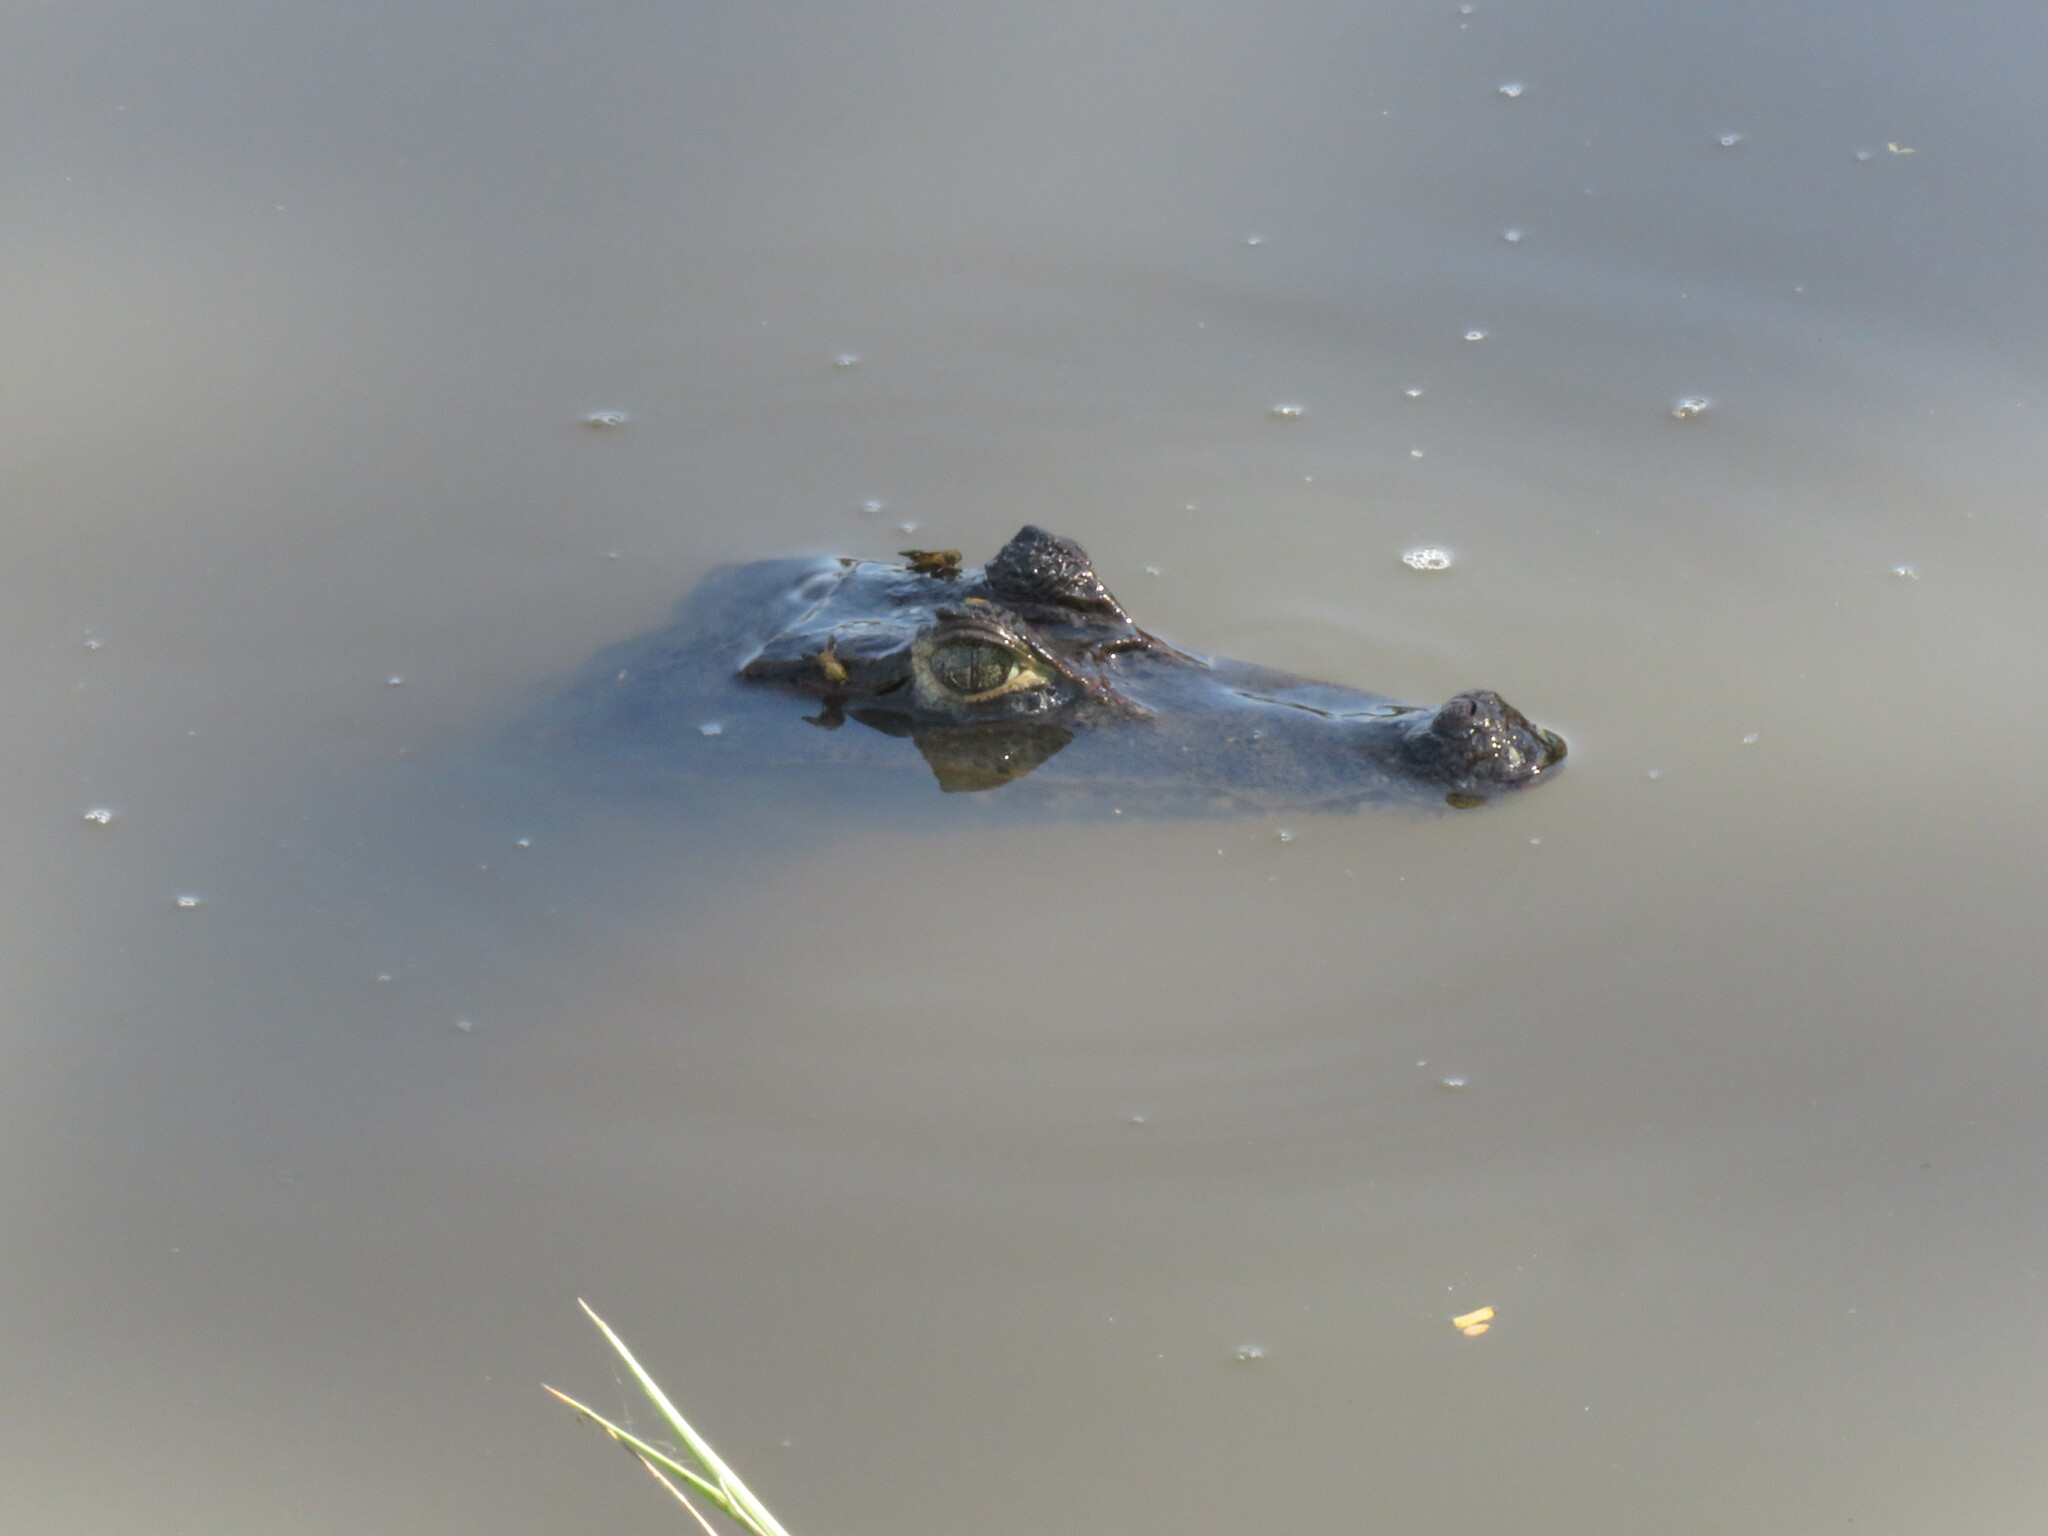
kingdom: Animalia
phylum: Chordata
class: Crocodylia
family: Alligatoridae
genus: Caiman
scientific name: Caiman yacare
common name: Yacare caiman
